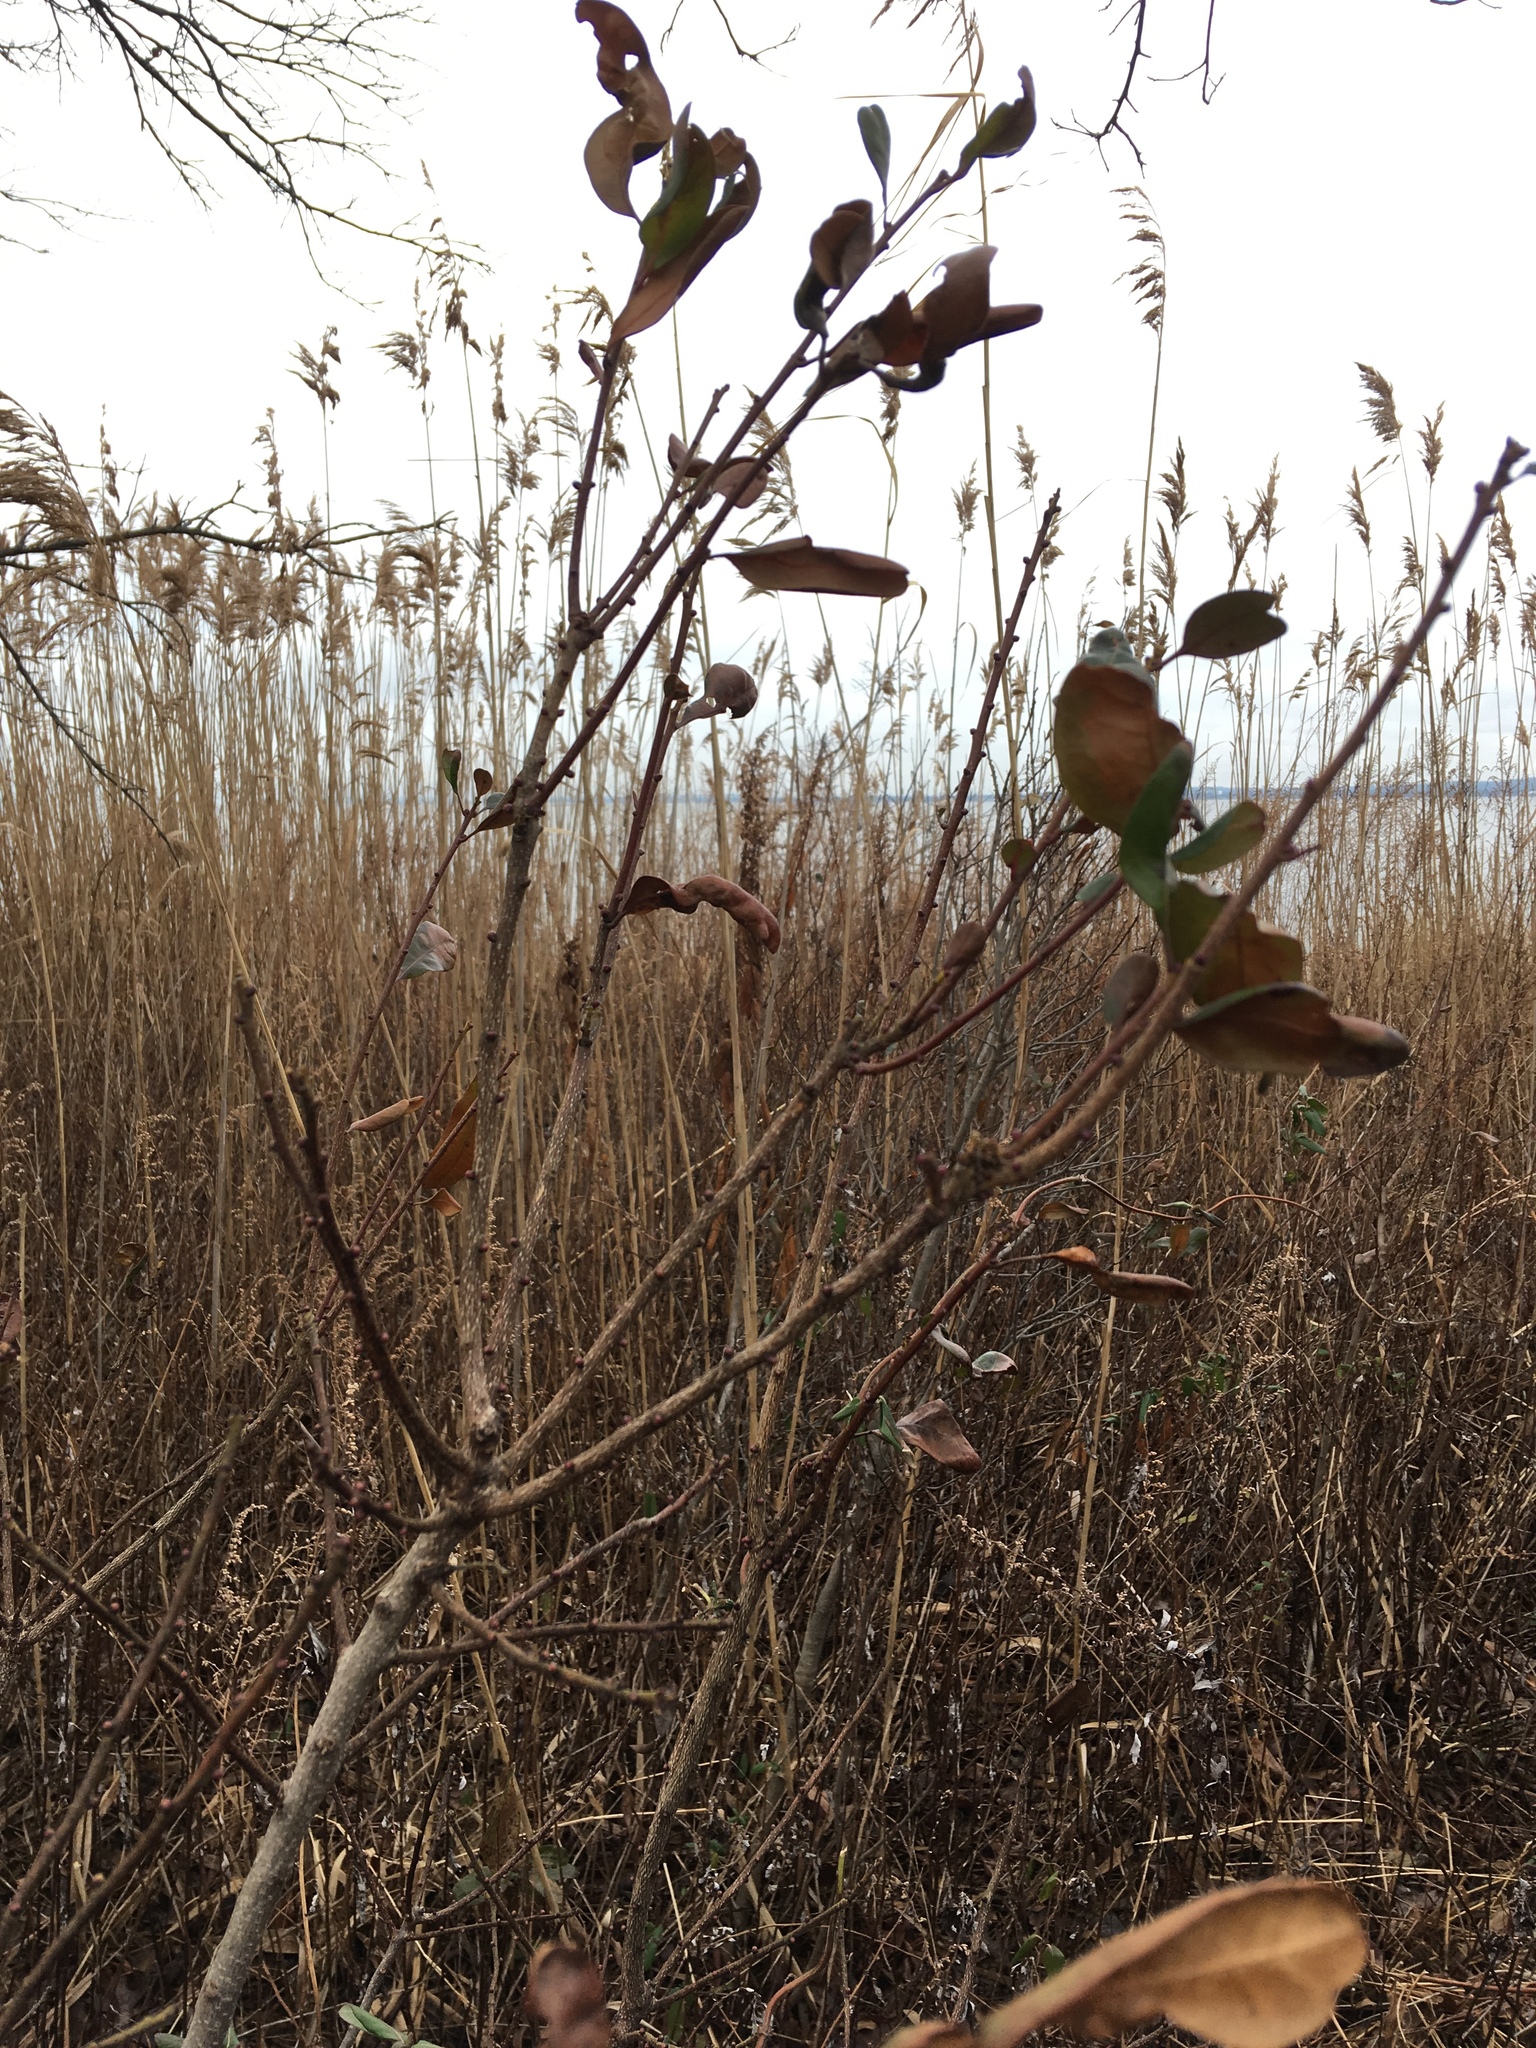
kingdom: Plantae
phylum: Tracheophyta
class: Magnoliopsida
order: Fagales
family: Myricaceae
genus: Morella
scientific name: Morella pensylvanica
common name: Northern bayberry
